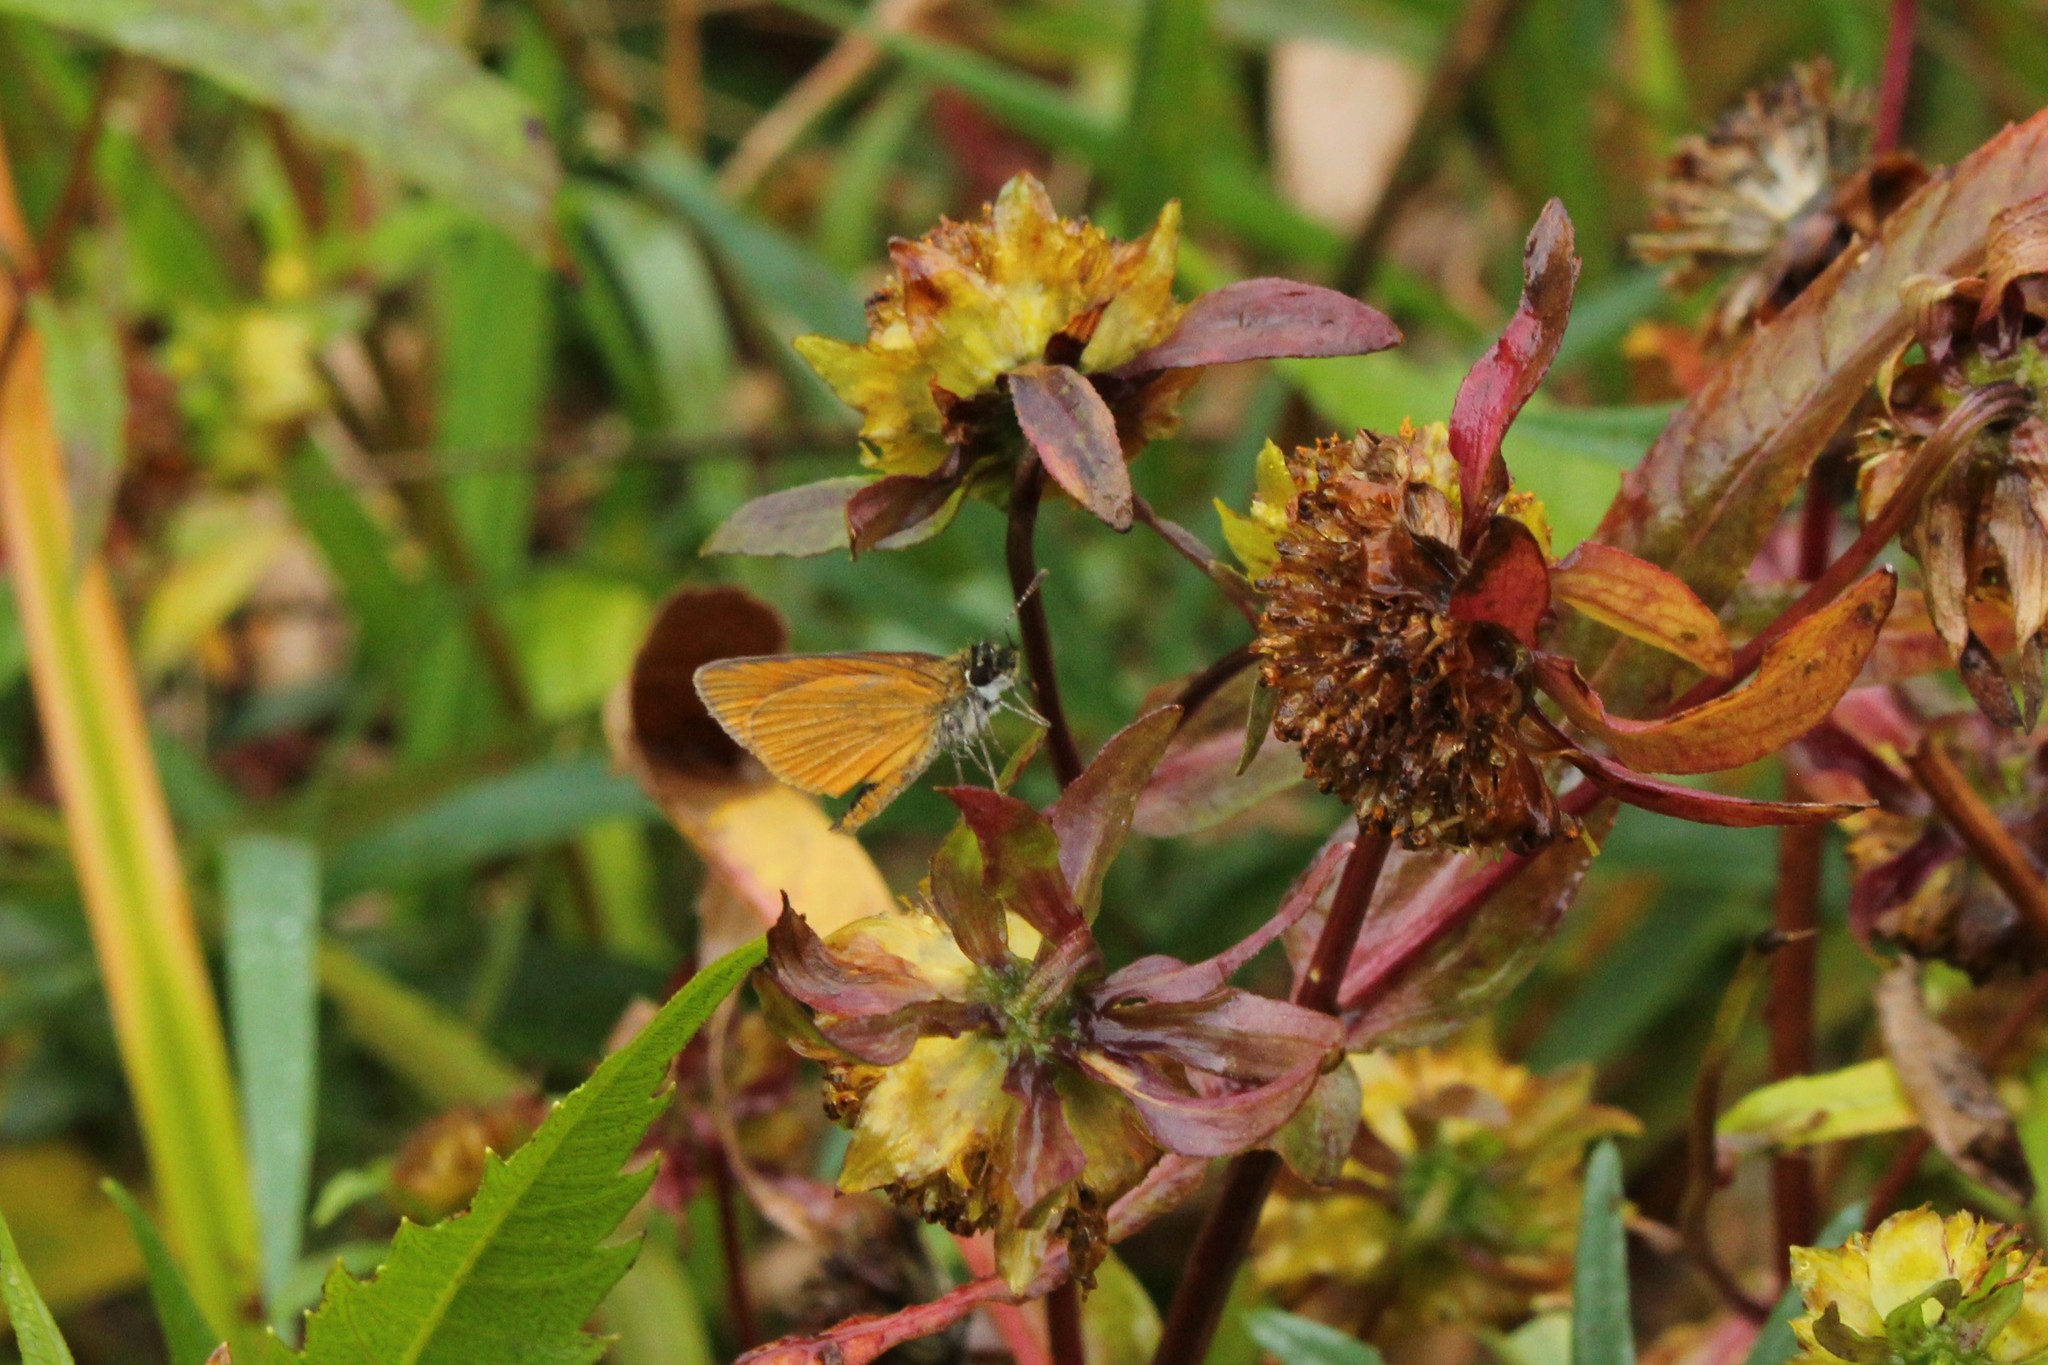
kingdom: Animalia
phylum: Arthropoda
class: Insecta
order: Lepidoptera
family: Hesperiidae
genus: Ancyloxypha
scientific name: Ancyloxypha numitor
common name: Least skipper
